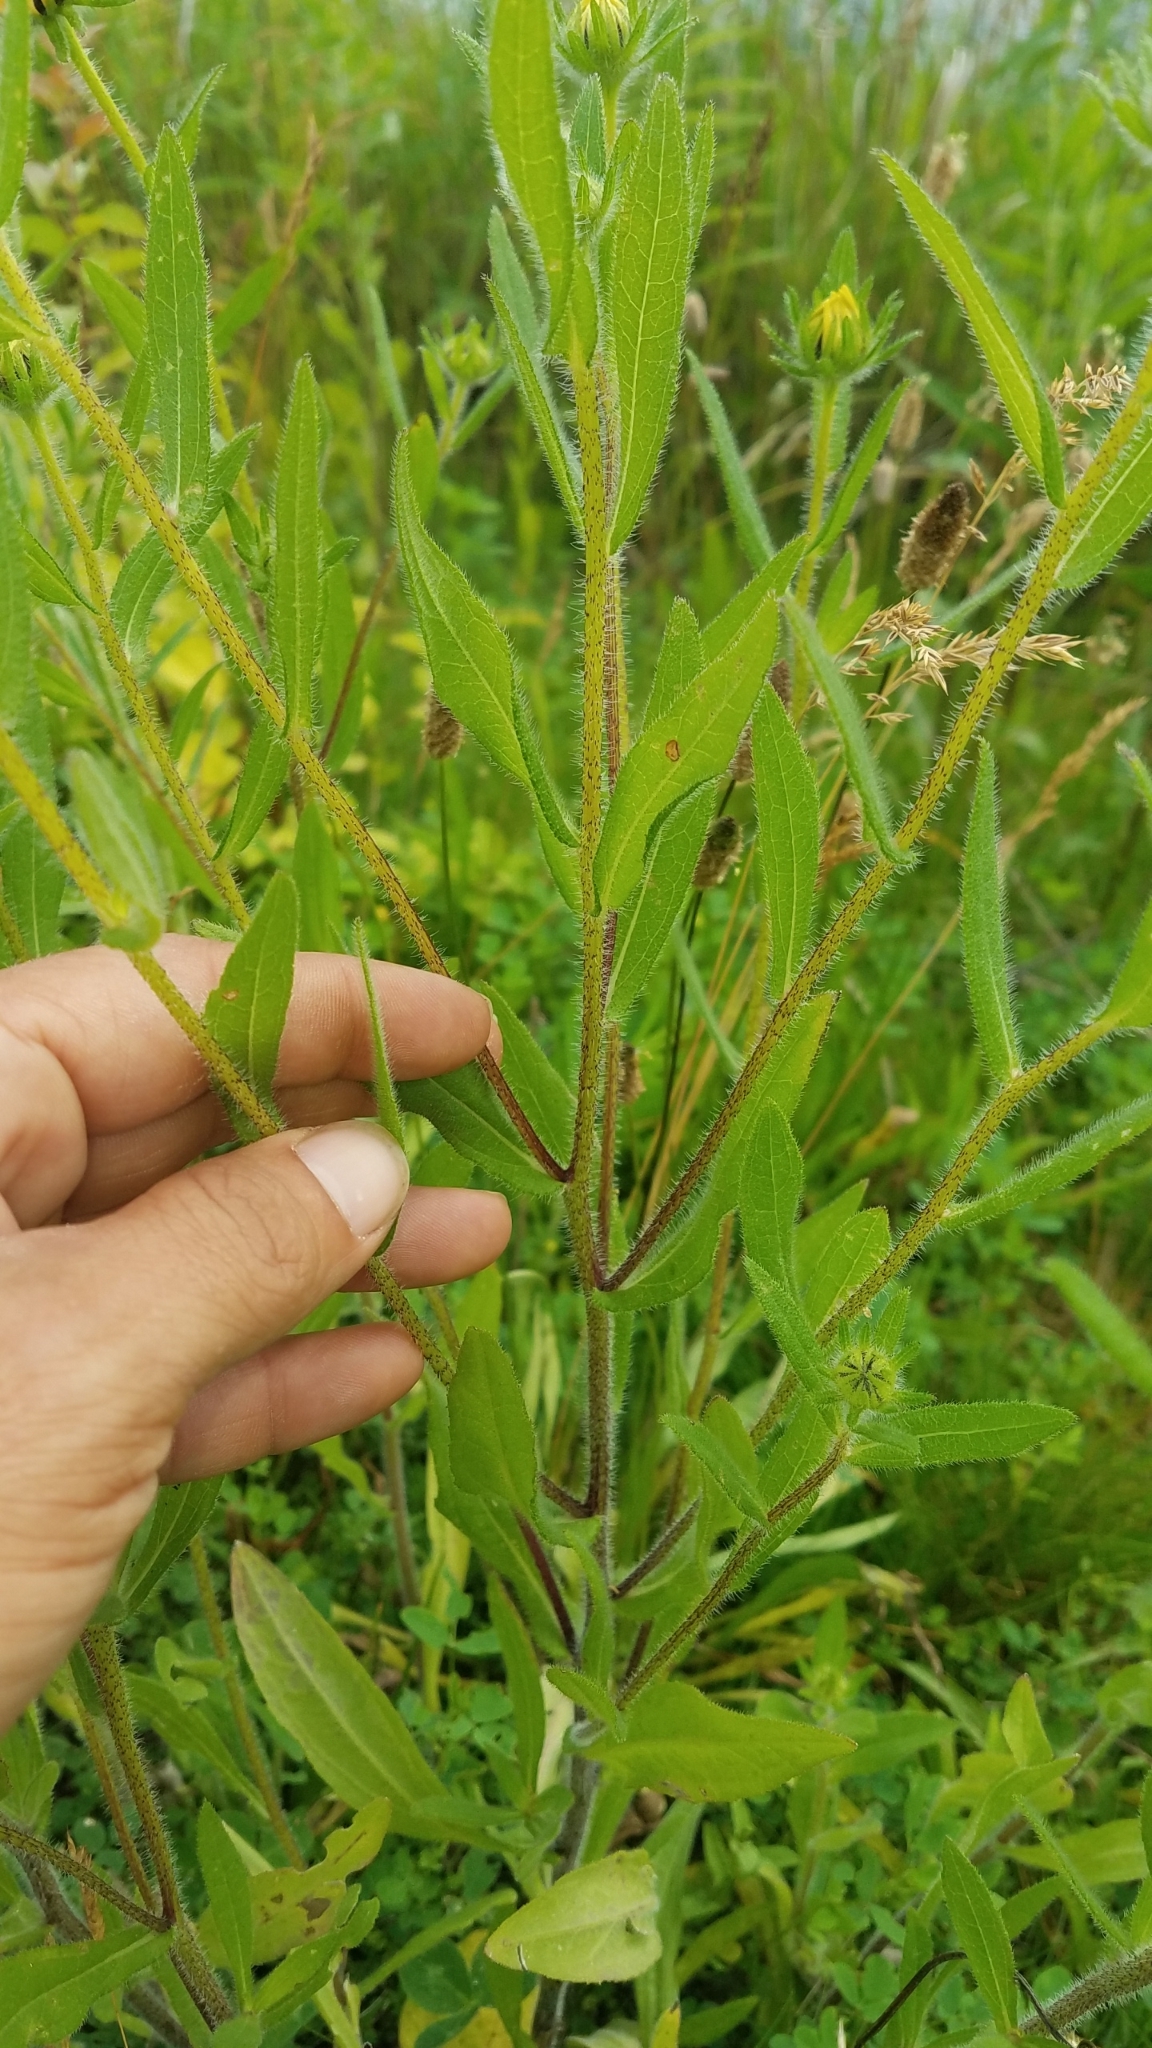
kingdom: Plantae
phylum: Tracheophyta
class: Magnoliopsida
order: Asterales
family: Asteraceae
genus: Rudbeckia
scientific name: Rudbeckia hirta
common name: Black-eyed-susan
